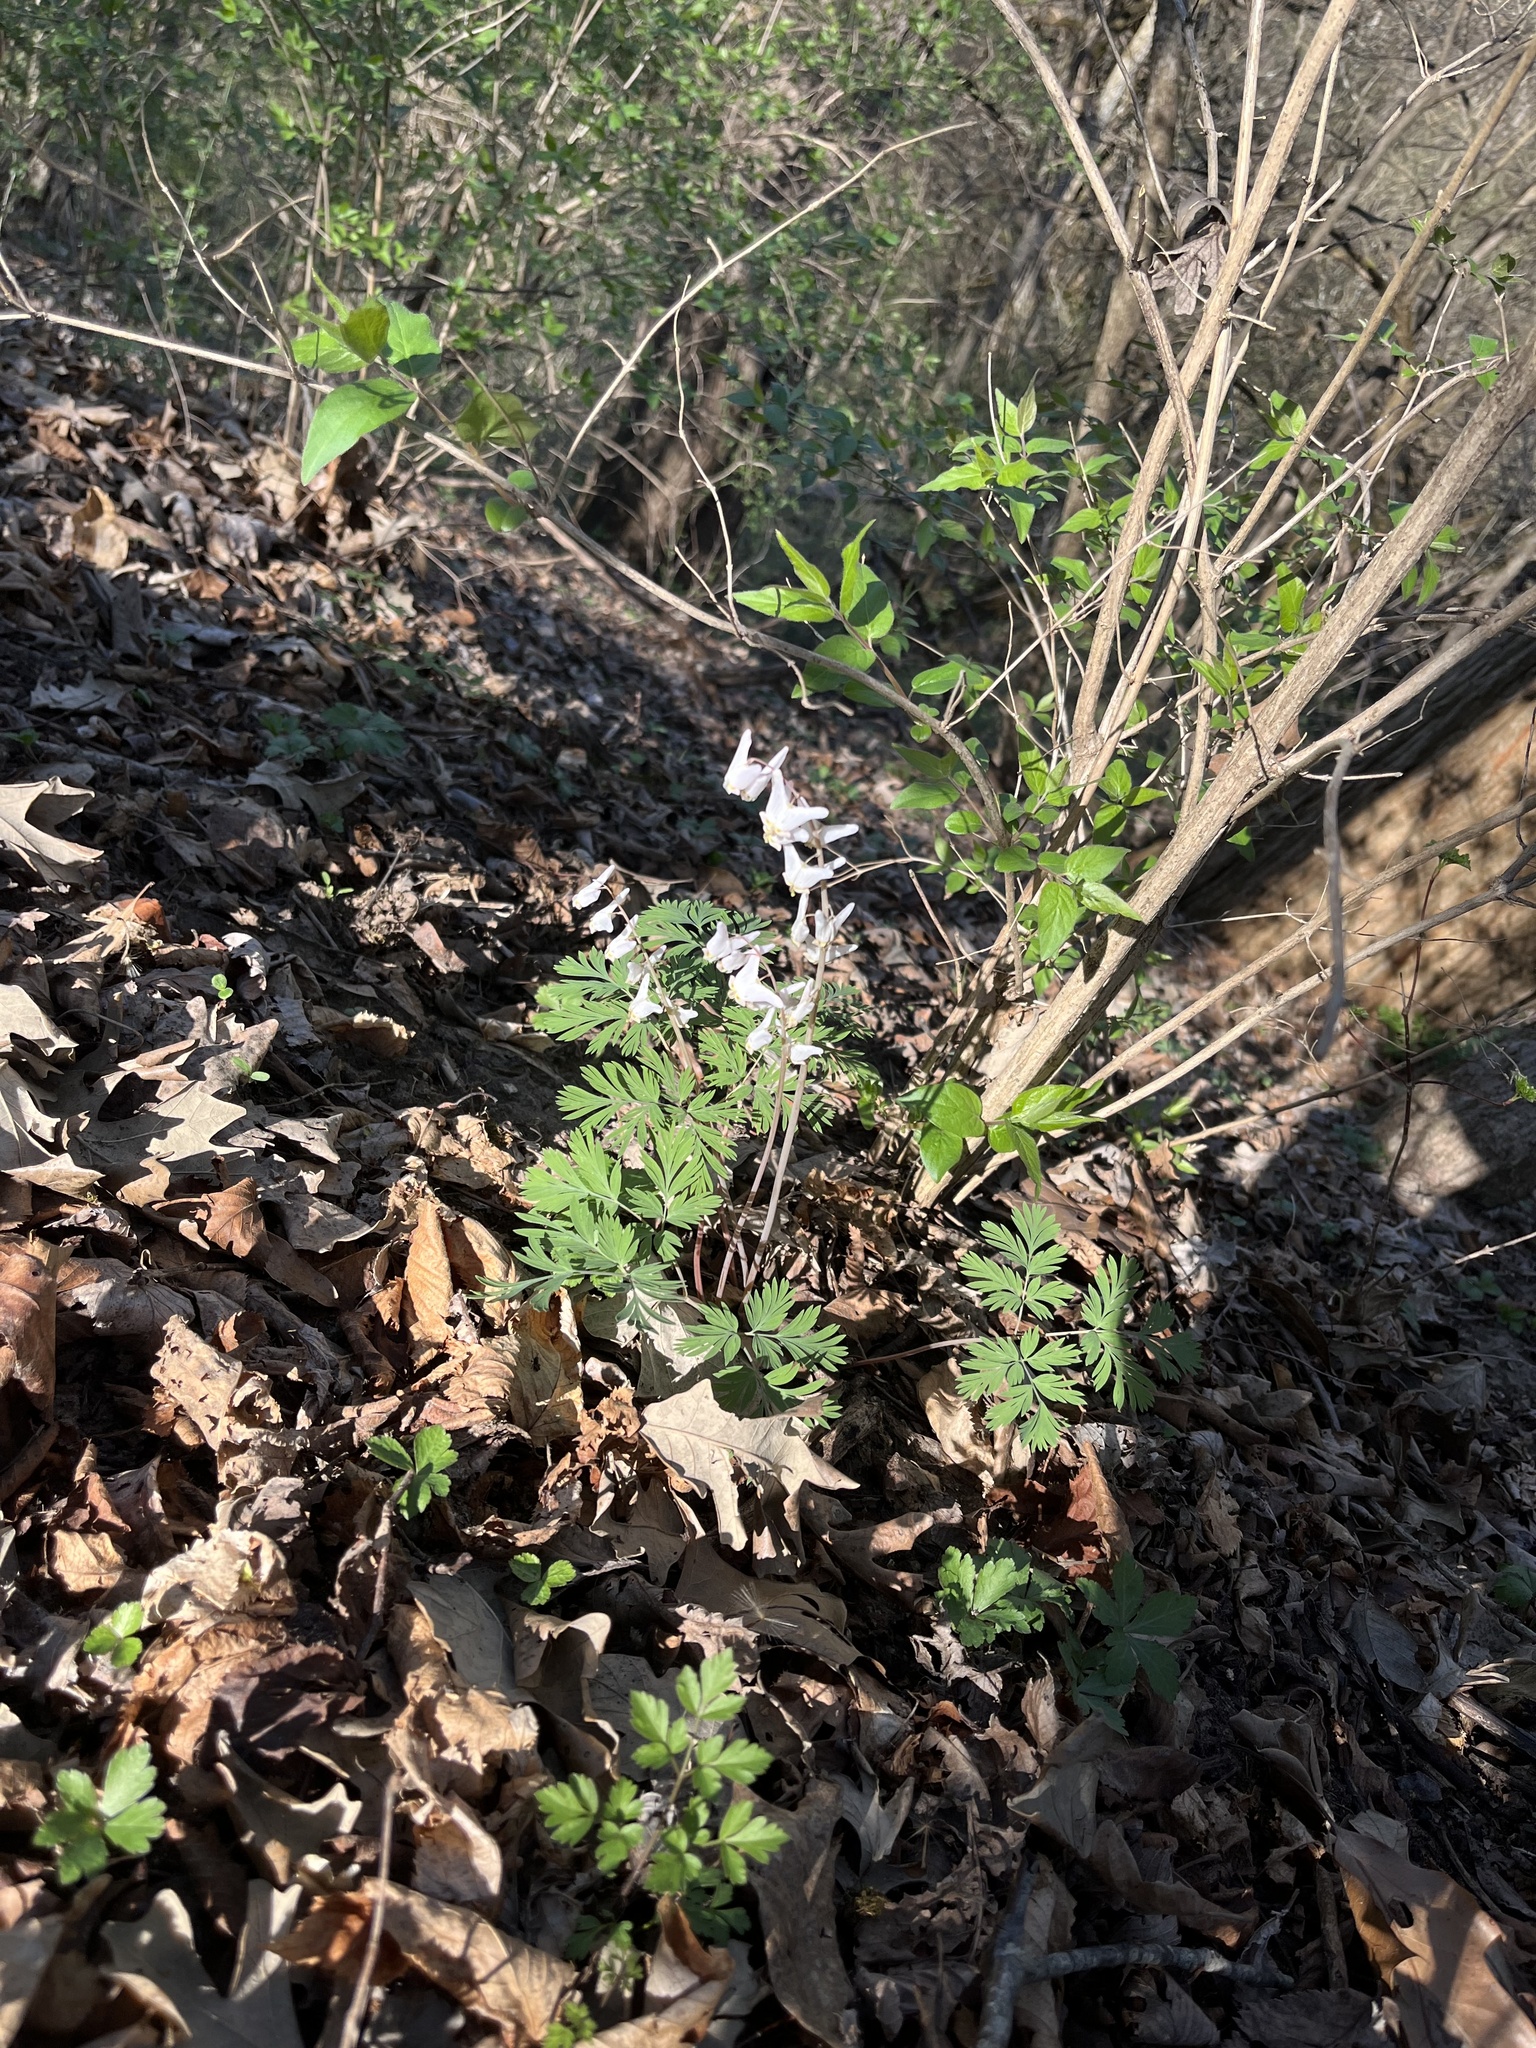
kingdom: Plantae
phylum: Tracheophyta
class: Magnoliopsida
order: Ranunculales
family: Papaveraceae
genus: Dicentra
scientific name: Dicentra cucullaria
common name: Dutchman's breeches
